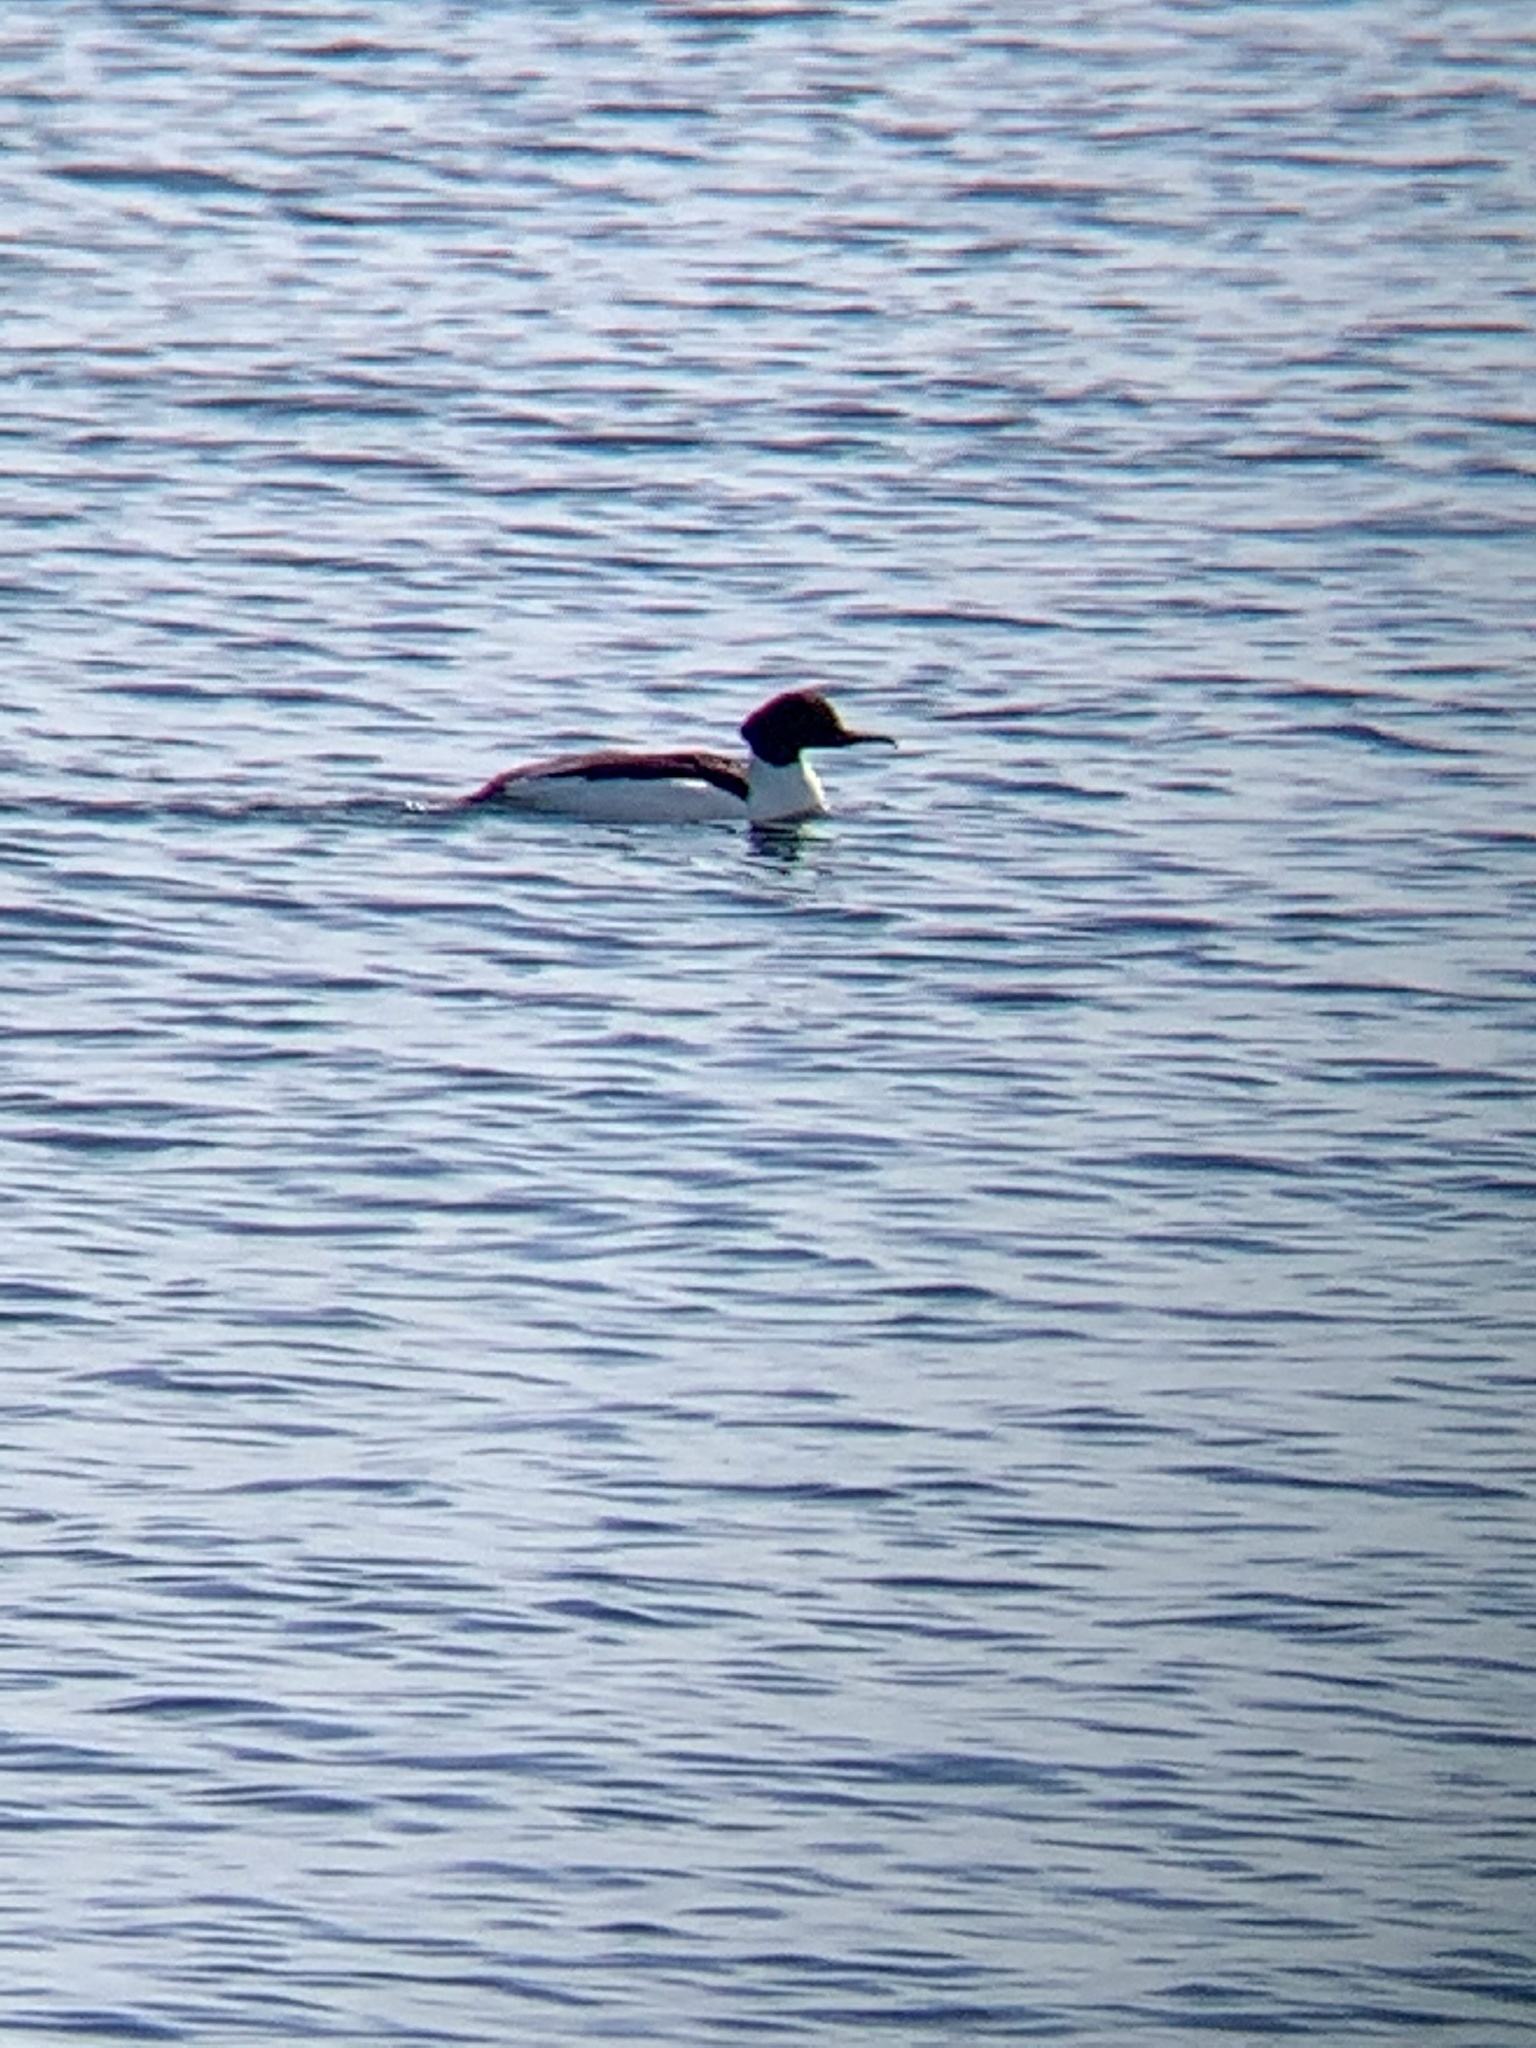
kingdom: Animalia
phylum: Chordata
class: Aves
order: Anseriformes
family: Anatidae
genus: Mergus
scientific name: Mergus merganser
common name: Common merganser
